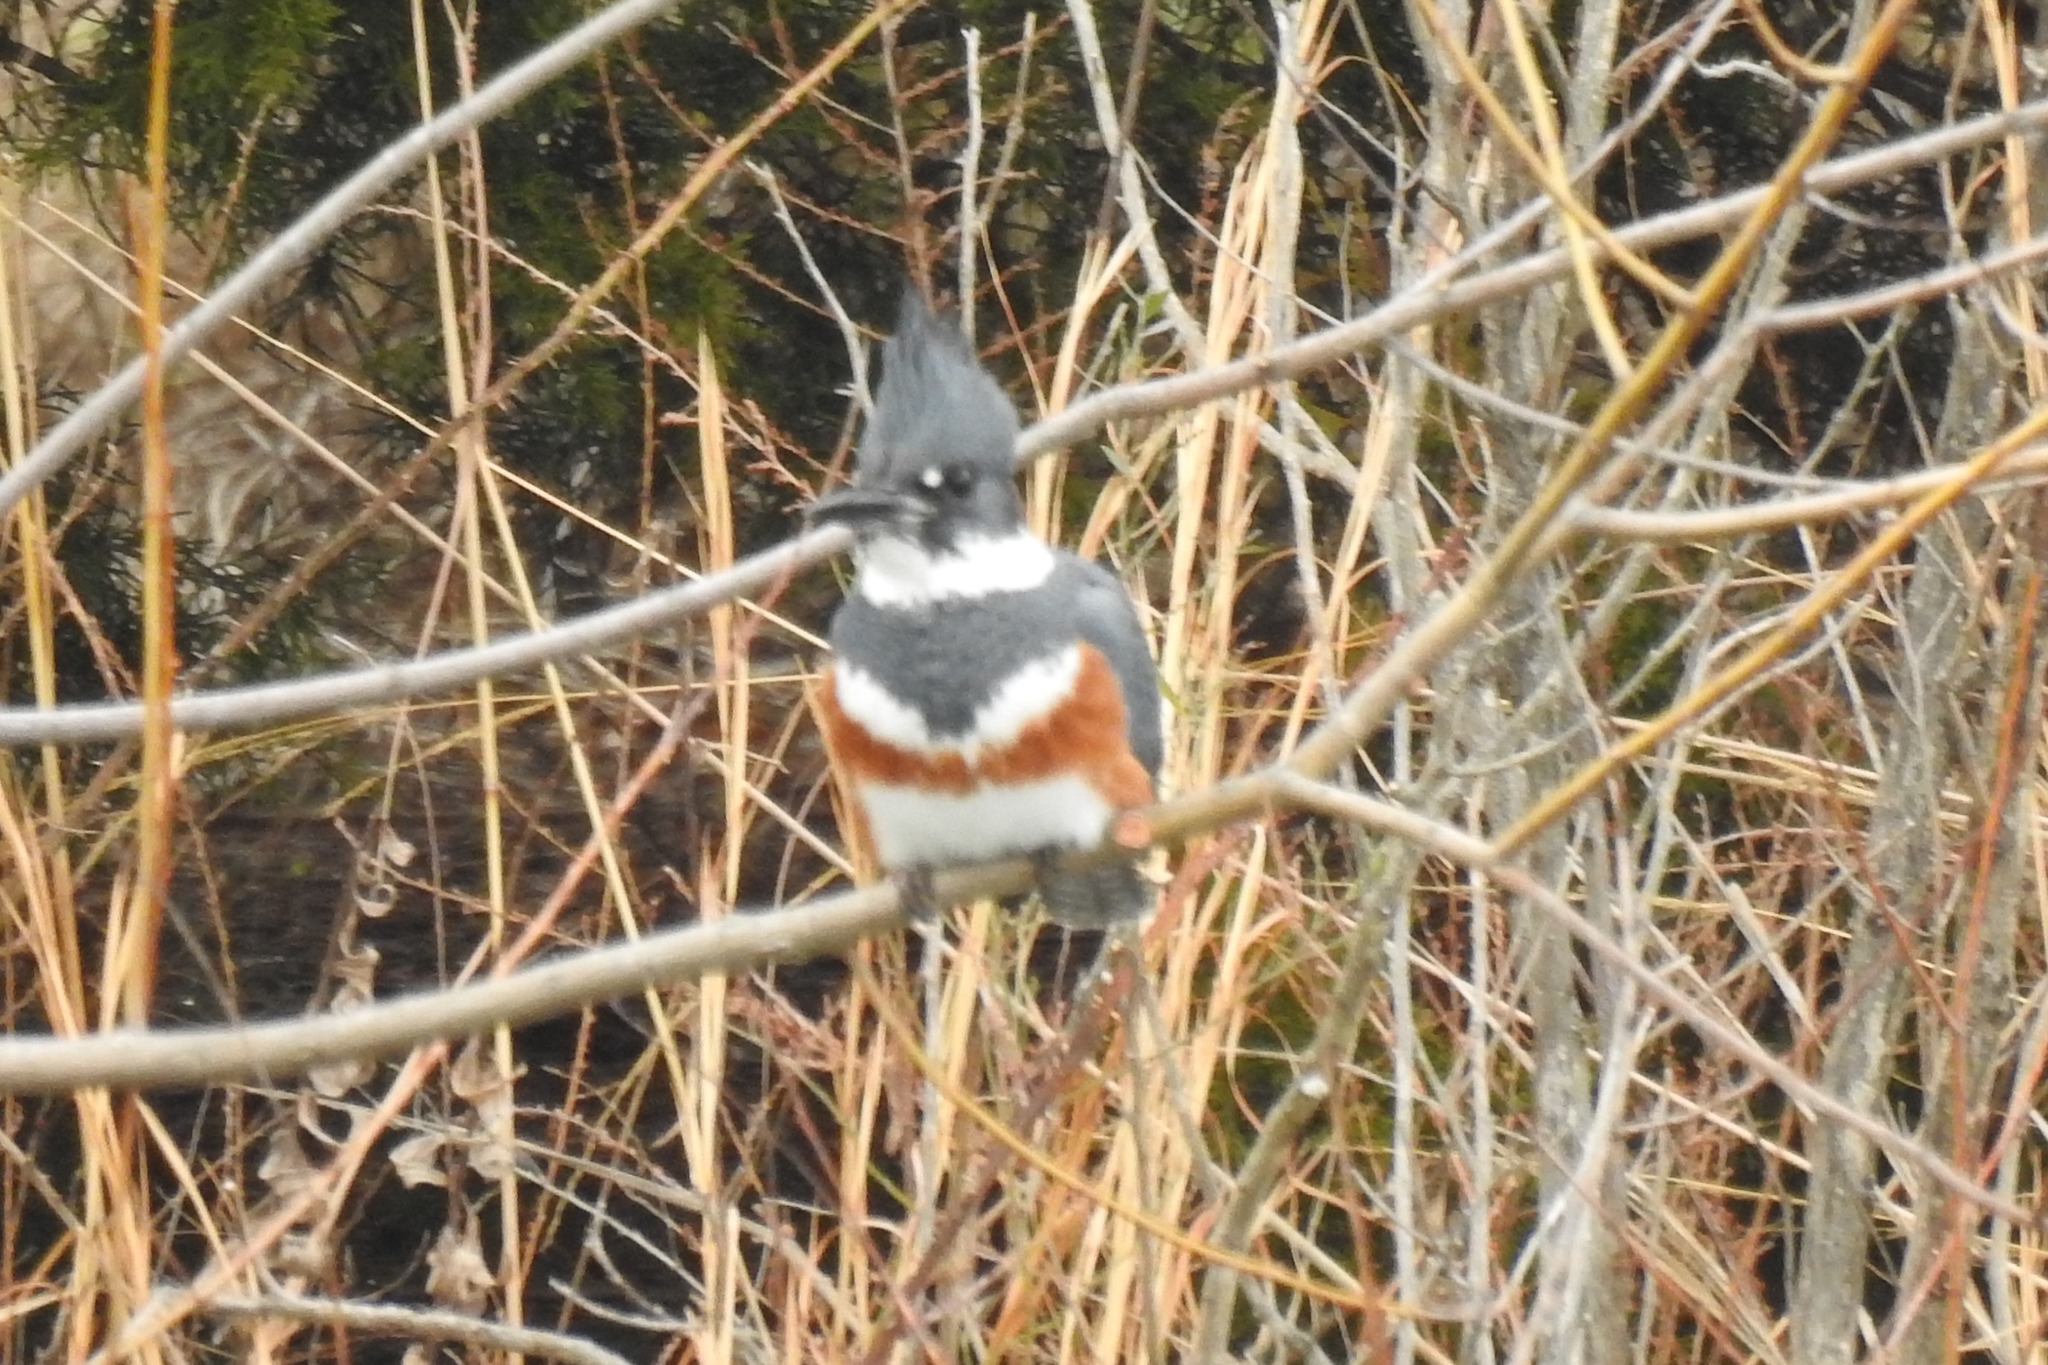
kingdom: Animalia
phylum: Chordata
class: Aves
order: Coraciiformes
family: Alcedinidae
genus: Megaceryle
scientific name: Megaceryle alcyon
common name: Belted kingfisher
